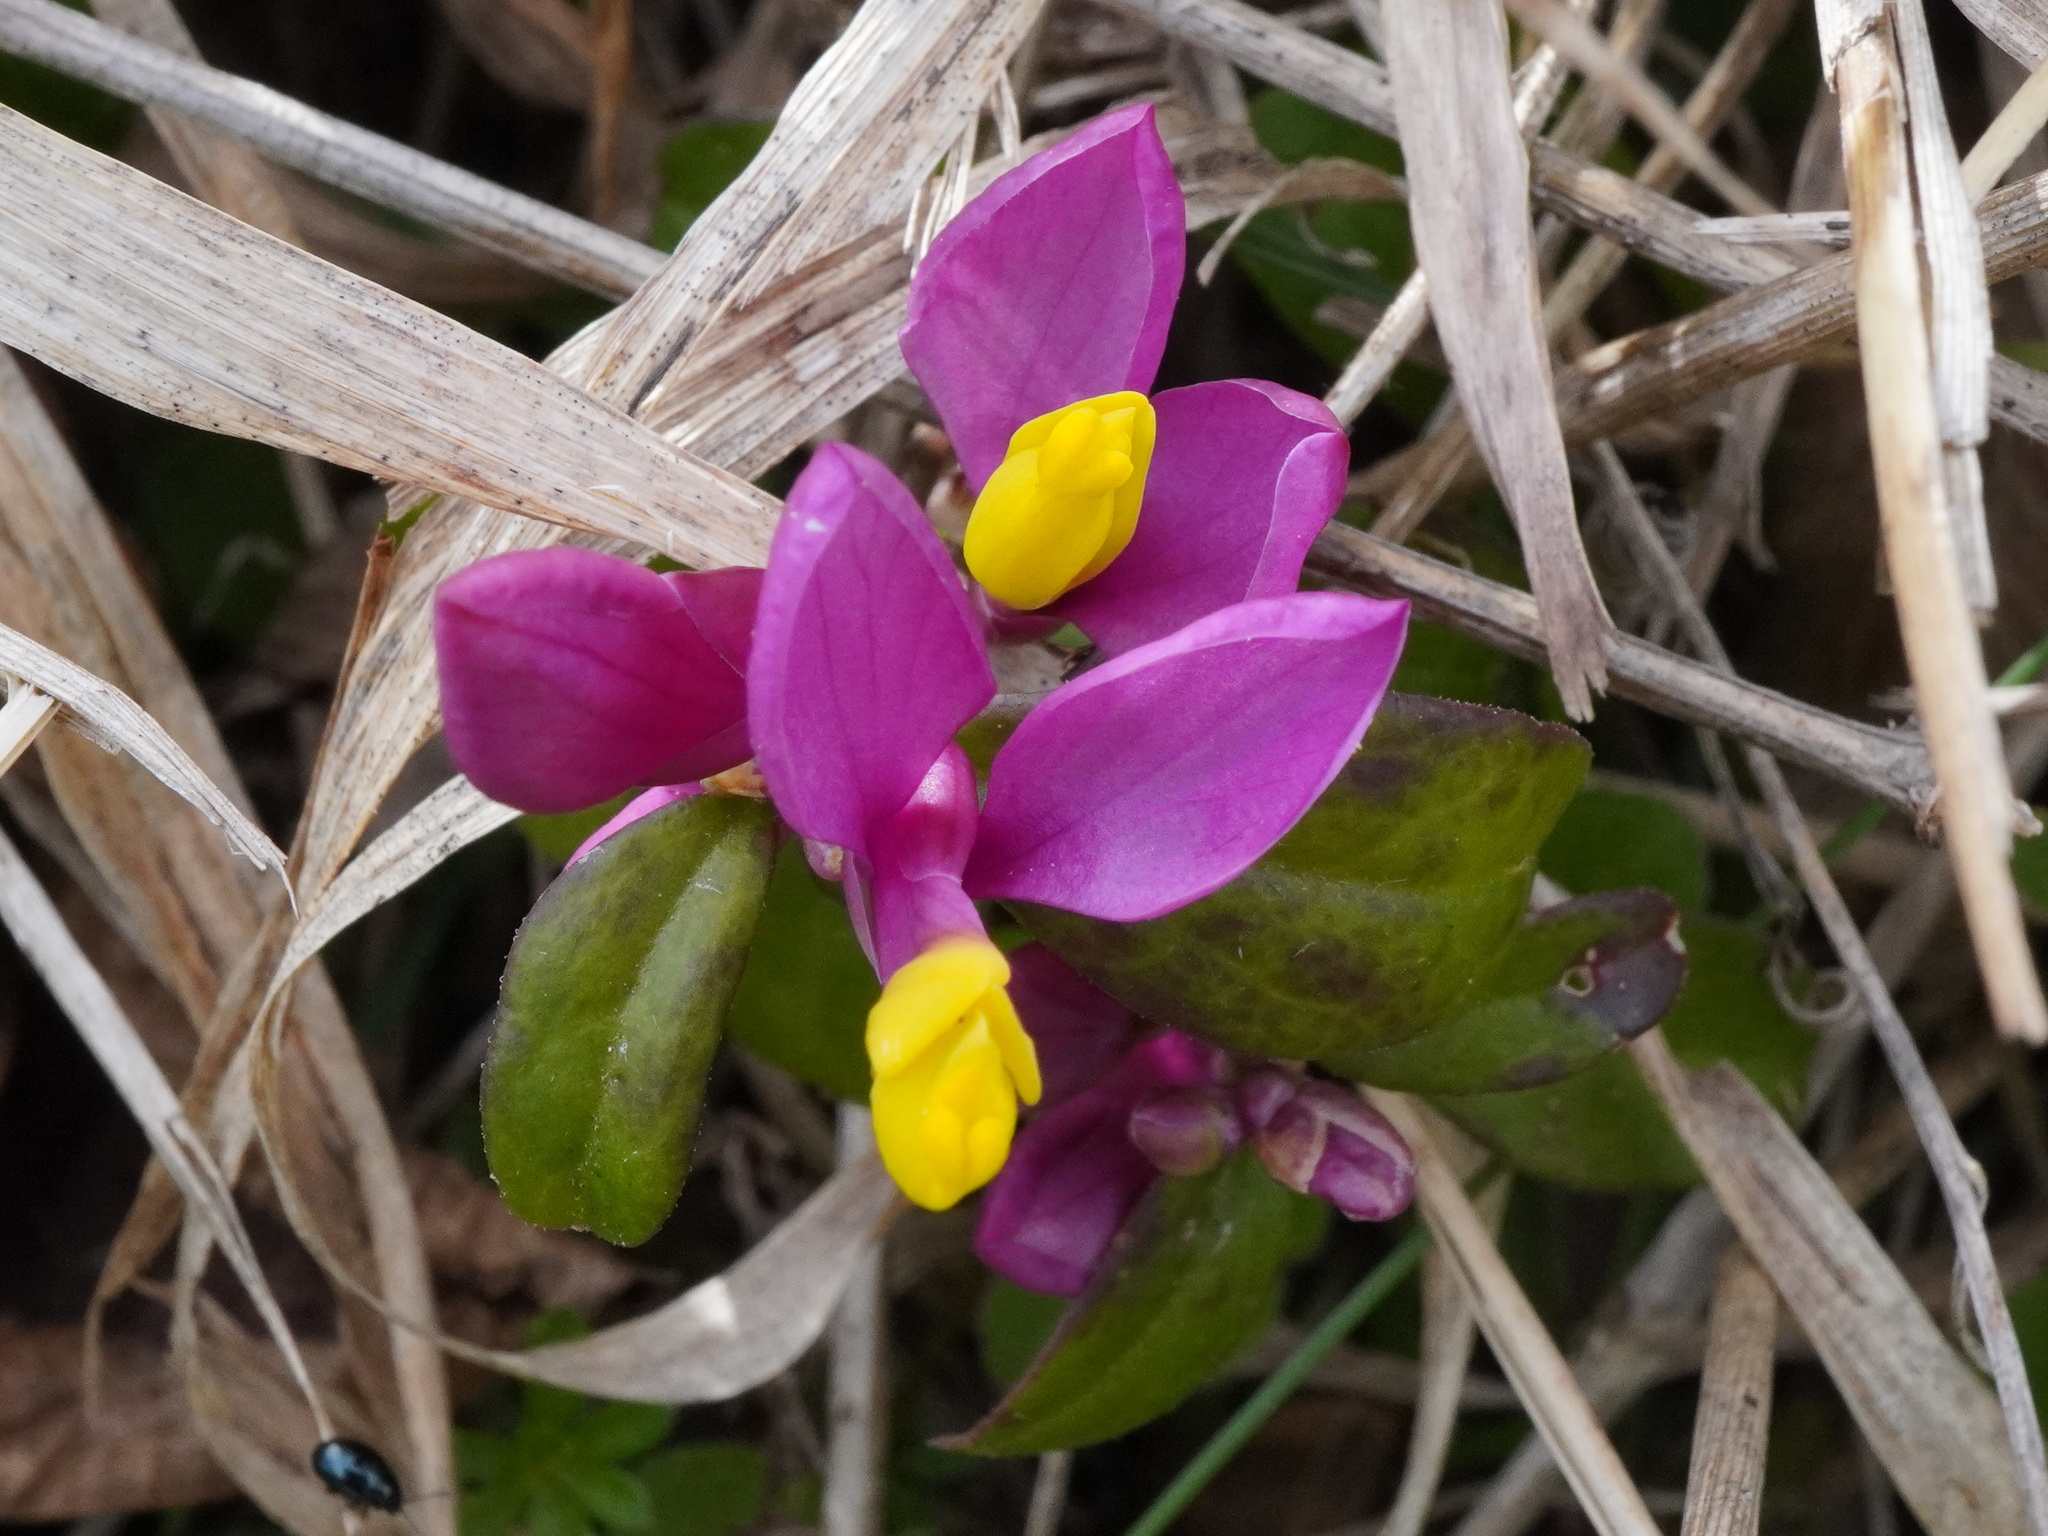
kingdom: Plantae
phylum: Tracheophyta
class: Magnoliopsida
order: Fabales
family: Polygalaceae
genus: Polygaloides
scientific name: Polygaloides chamaebuxus
